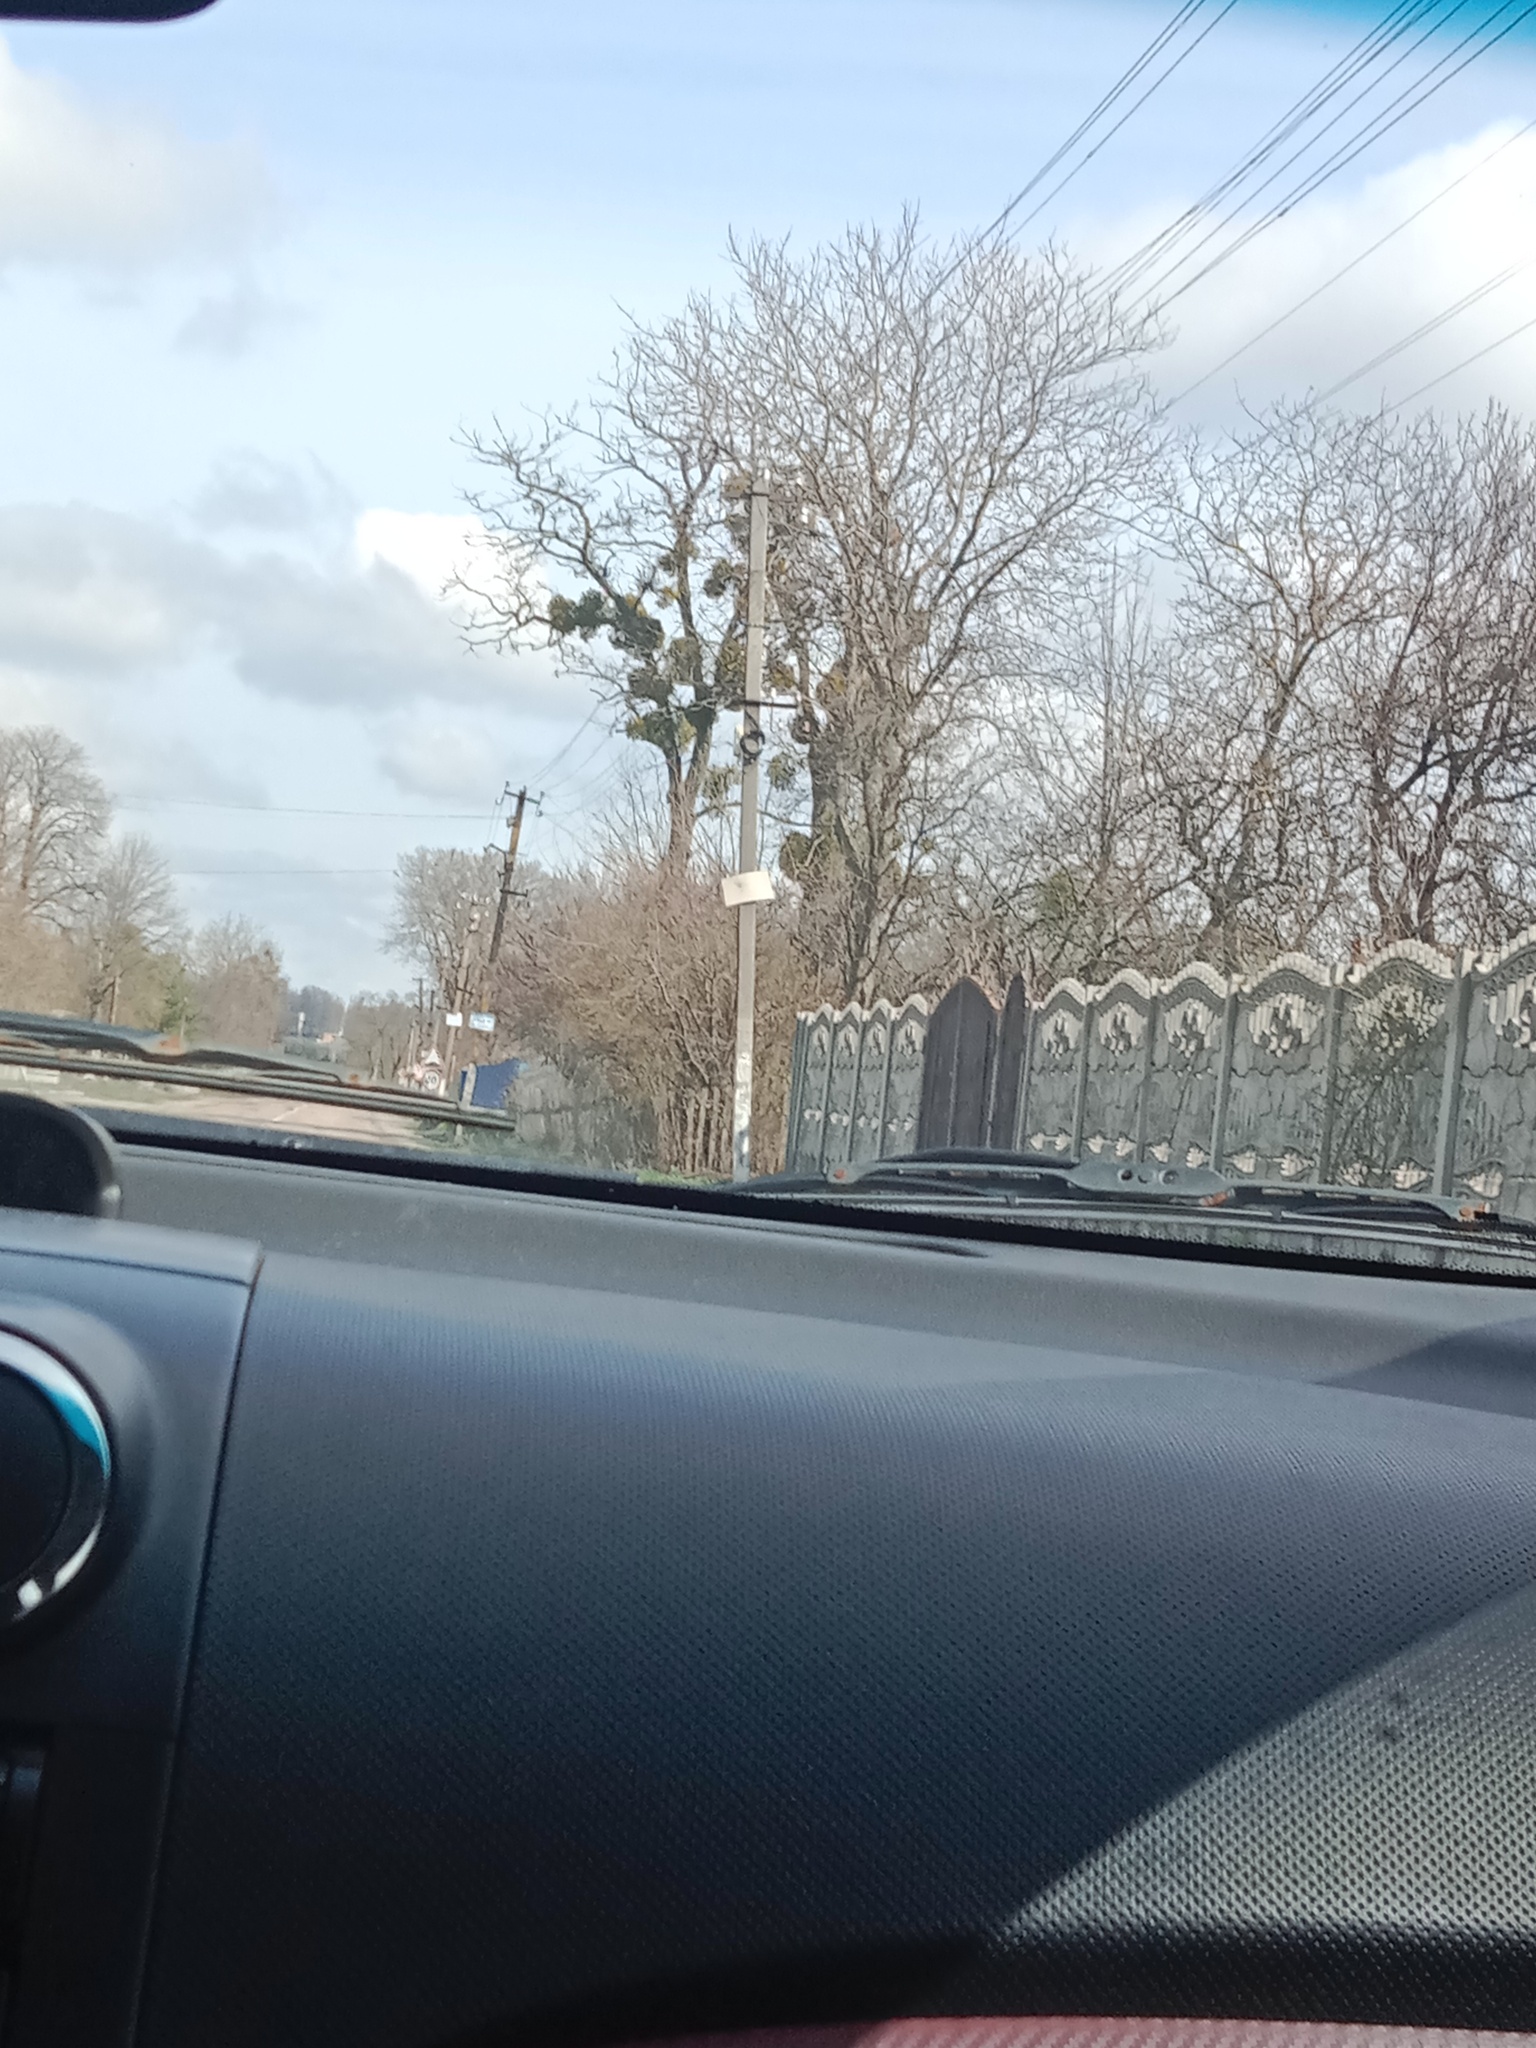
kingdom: Plantae
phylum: Tracheophyta
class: Magnoliopsida
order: Santalales
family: Viscaceae
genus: Viscum
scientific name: Viscum album
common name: Mistletoe
